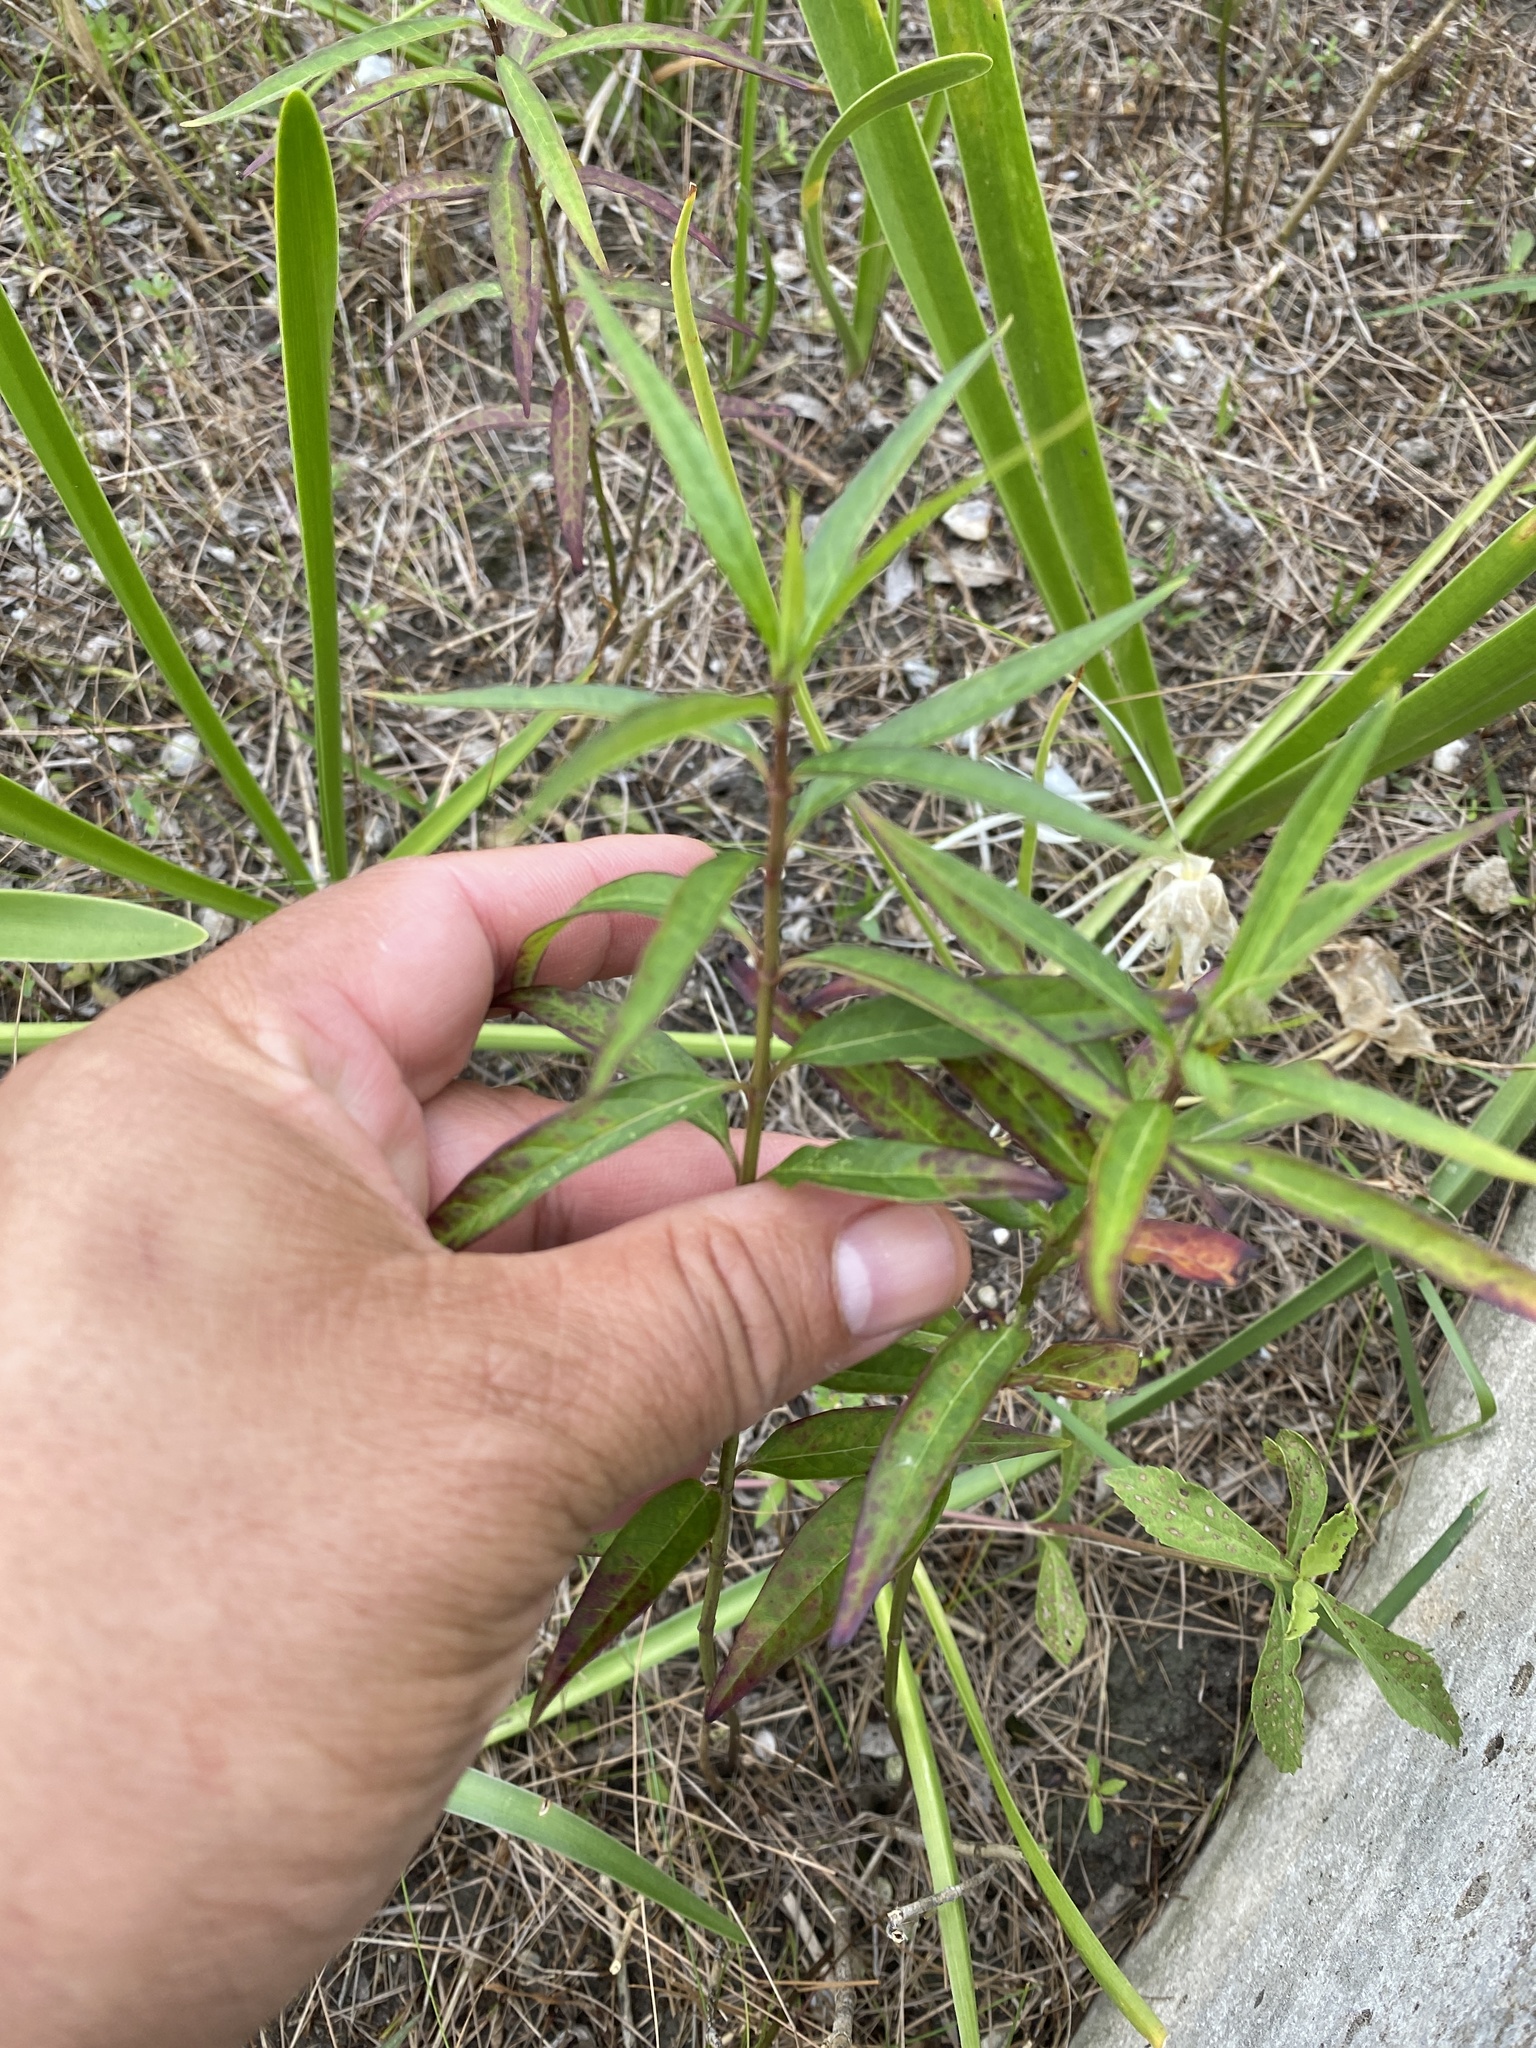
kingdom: Plantae
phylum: Tracheophyta
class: Magnoliopsida
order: Gentianales
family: Apocynaceae
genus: Asclepias
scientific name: Asclepias perennis
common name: Smooth-seed milkweed
